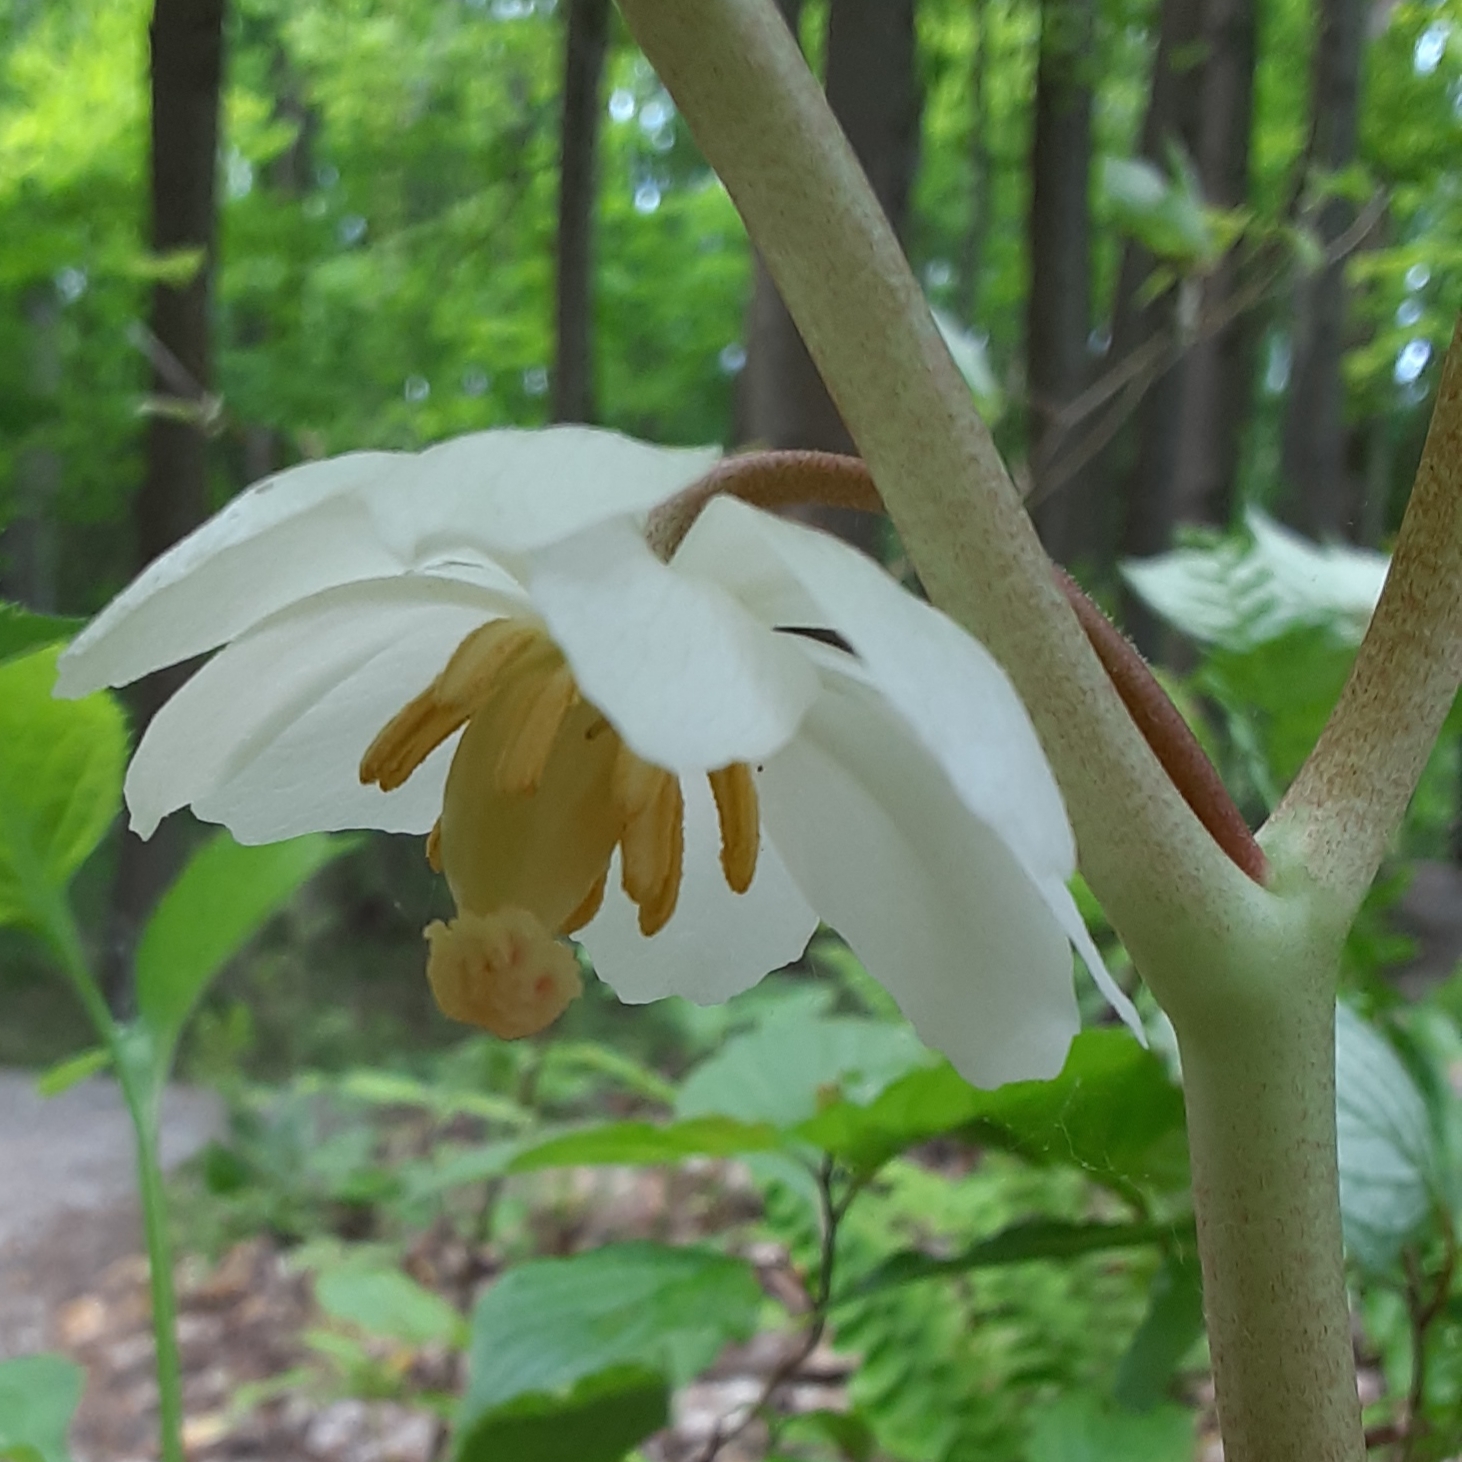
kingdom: Plantae
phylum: Tracheophyta
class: Magnoliopsida
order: Ranunculales
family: Berberidaceae
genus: Podophyllum
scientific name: Podophyllum peltatum
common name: Wild mandrake
